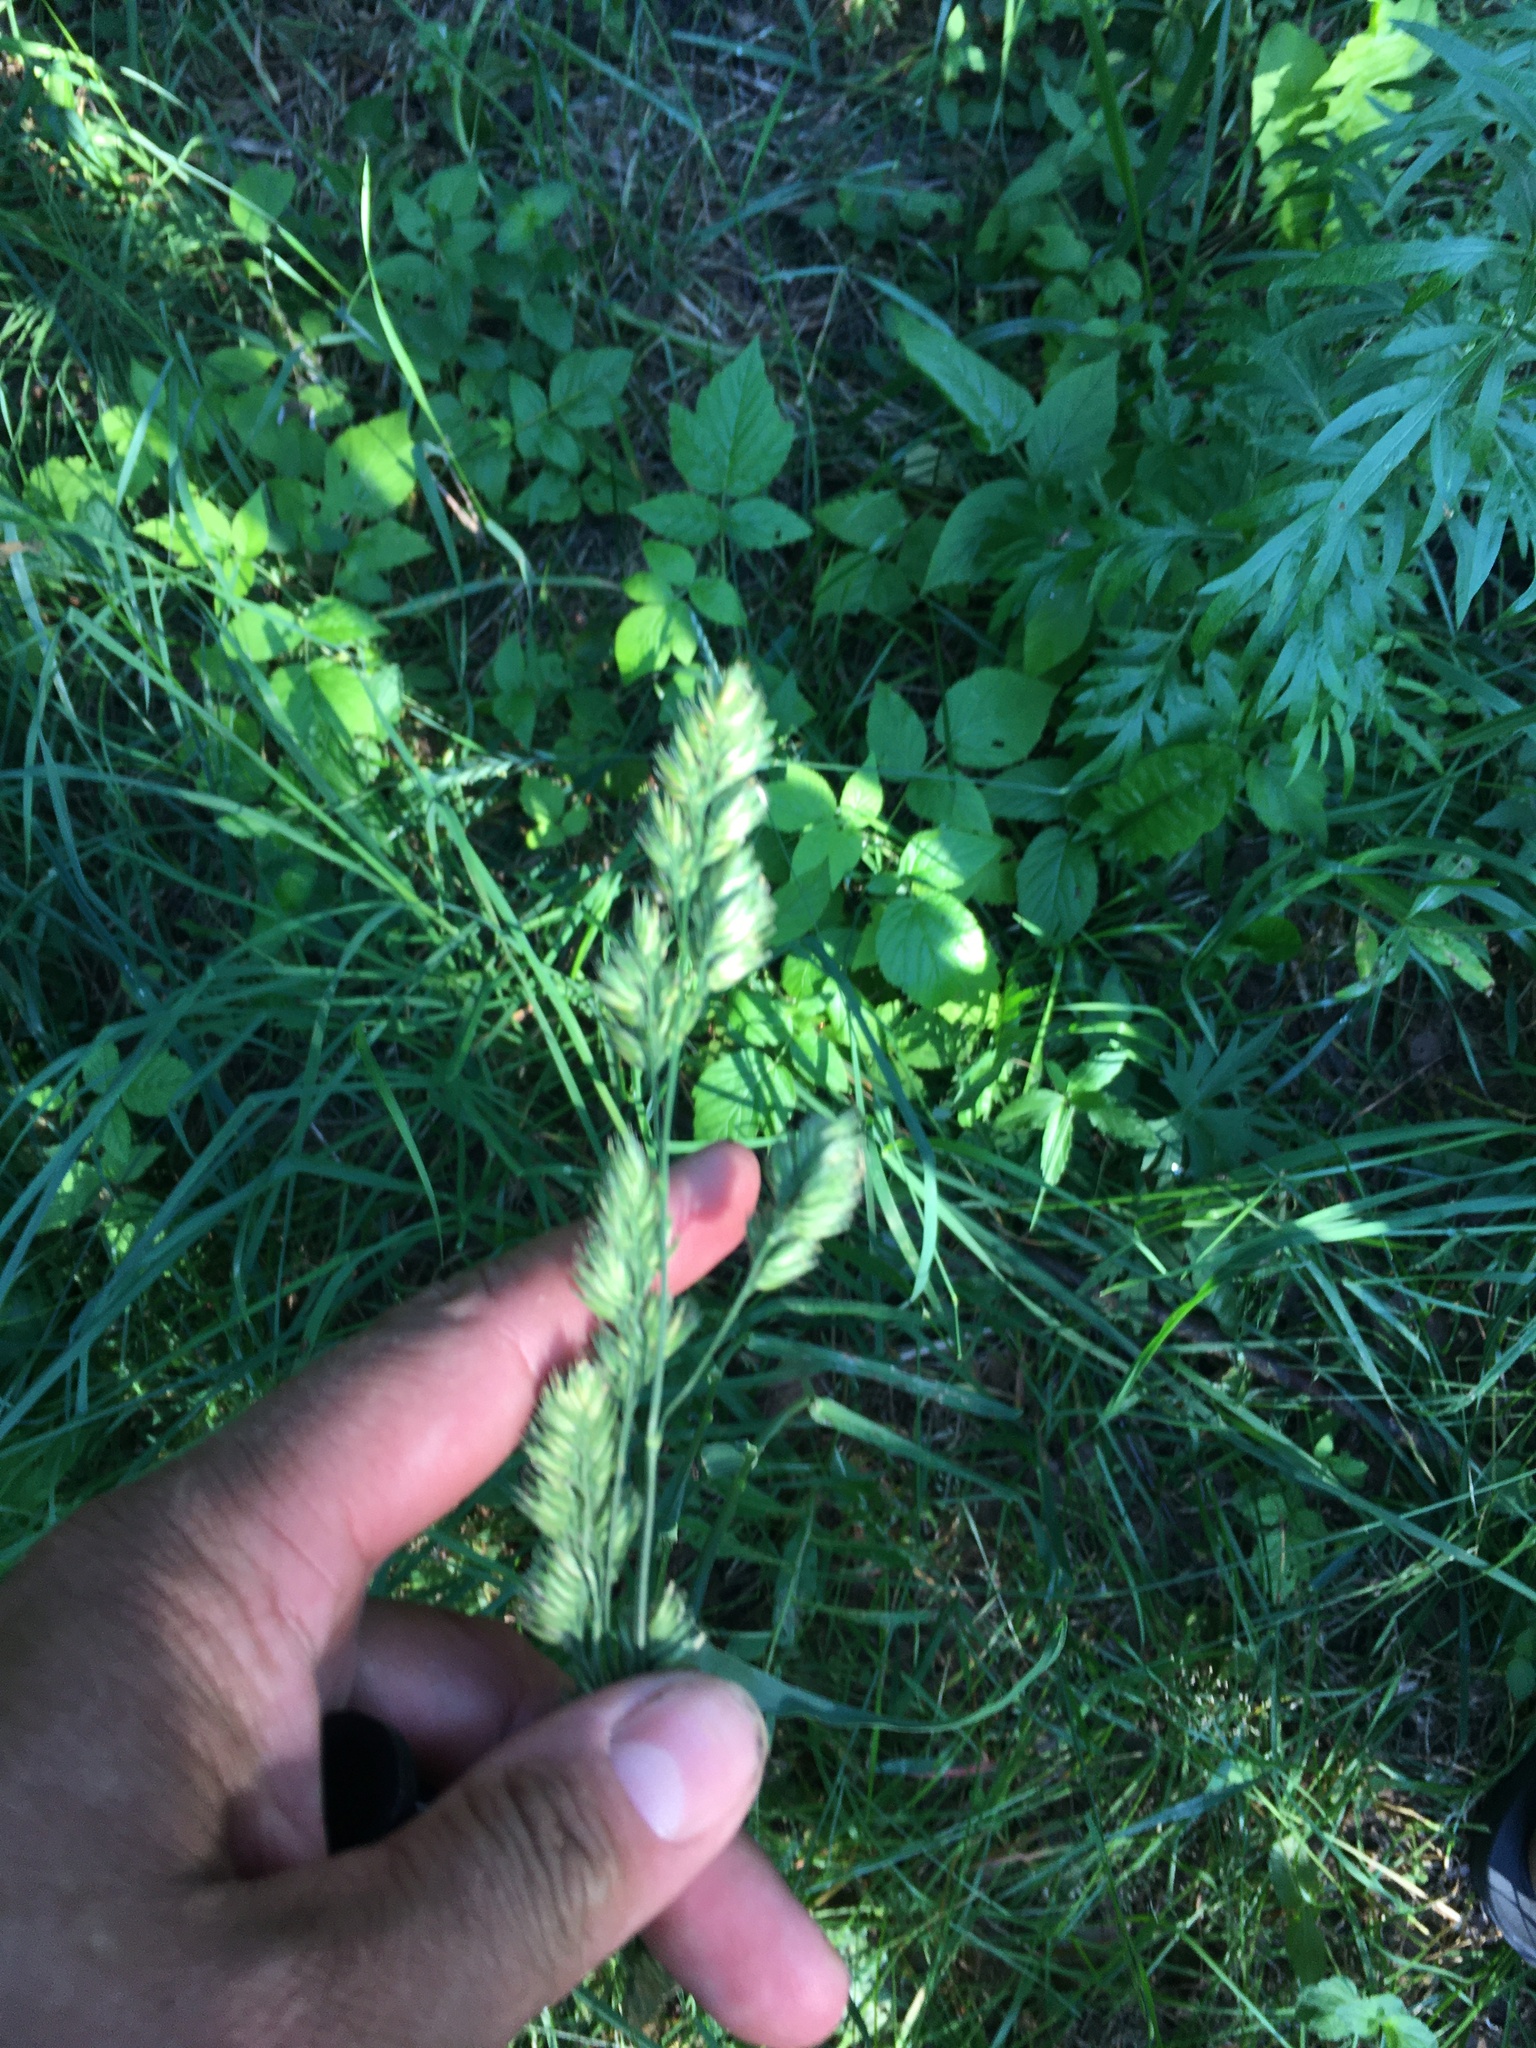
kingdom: Plantae
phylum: Tracheophyta
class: Liliopsida
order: Poales
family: Poaceae
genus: Dactylis
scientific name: Dactylis glomerata
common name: Orchardgrass
